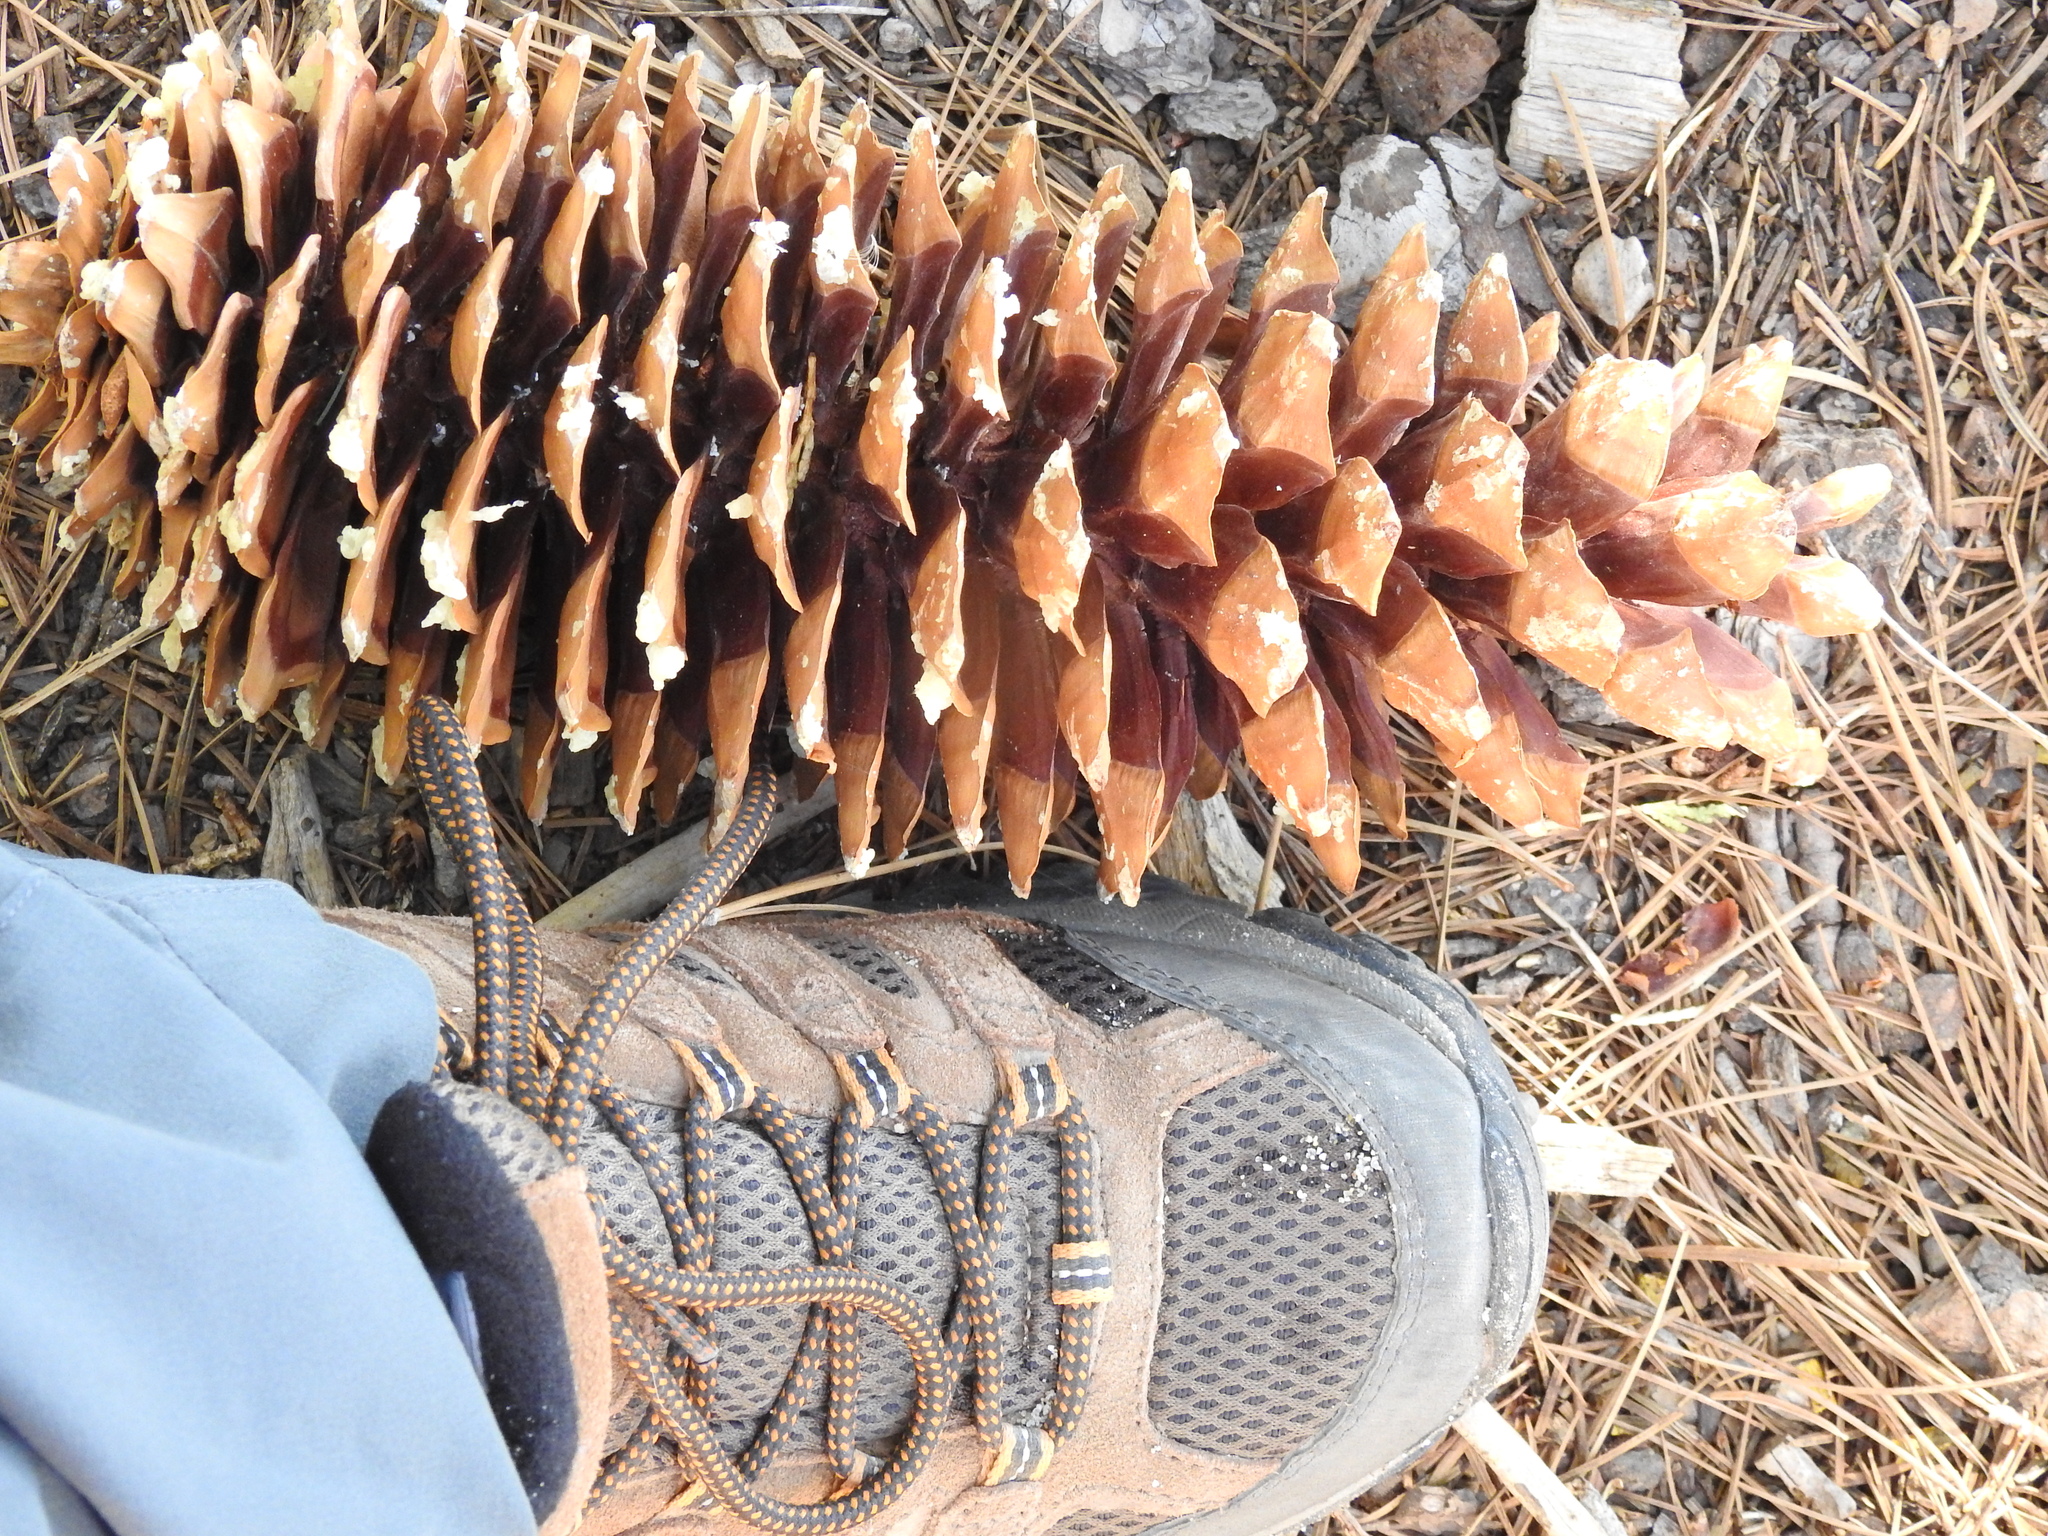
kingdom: Plantae
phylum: Tracheophyta
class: Pinopsida
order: Pinales
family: Pinaceae
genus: Pinus
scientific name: Pinus lambertiana
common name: Sugar pine
